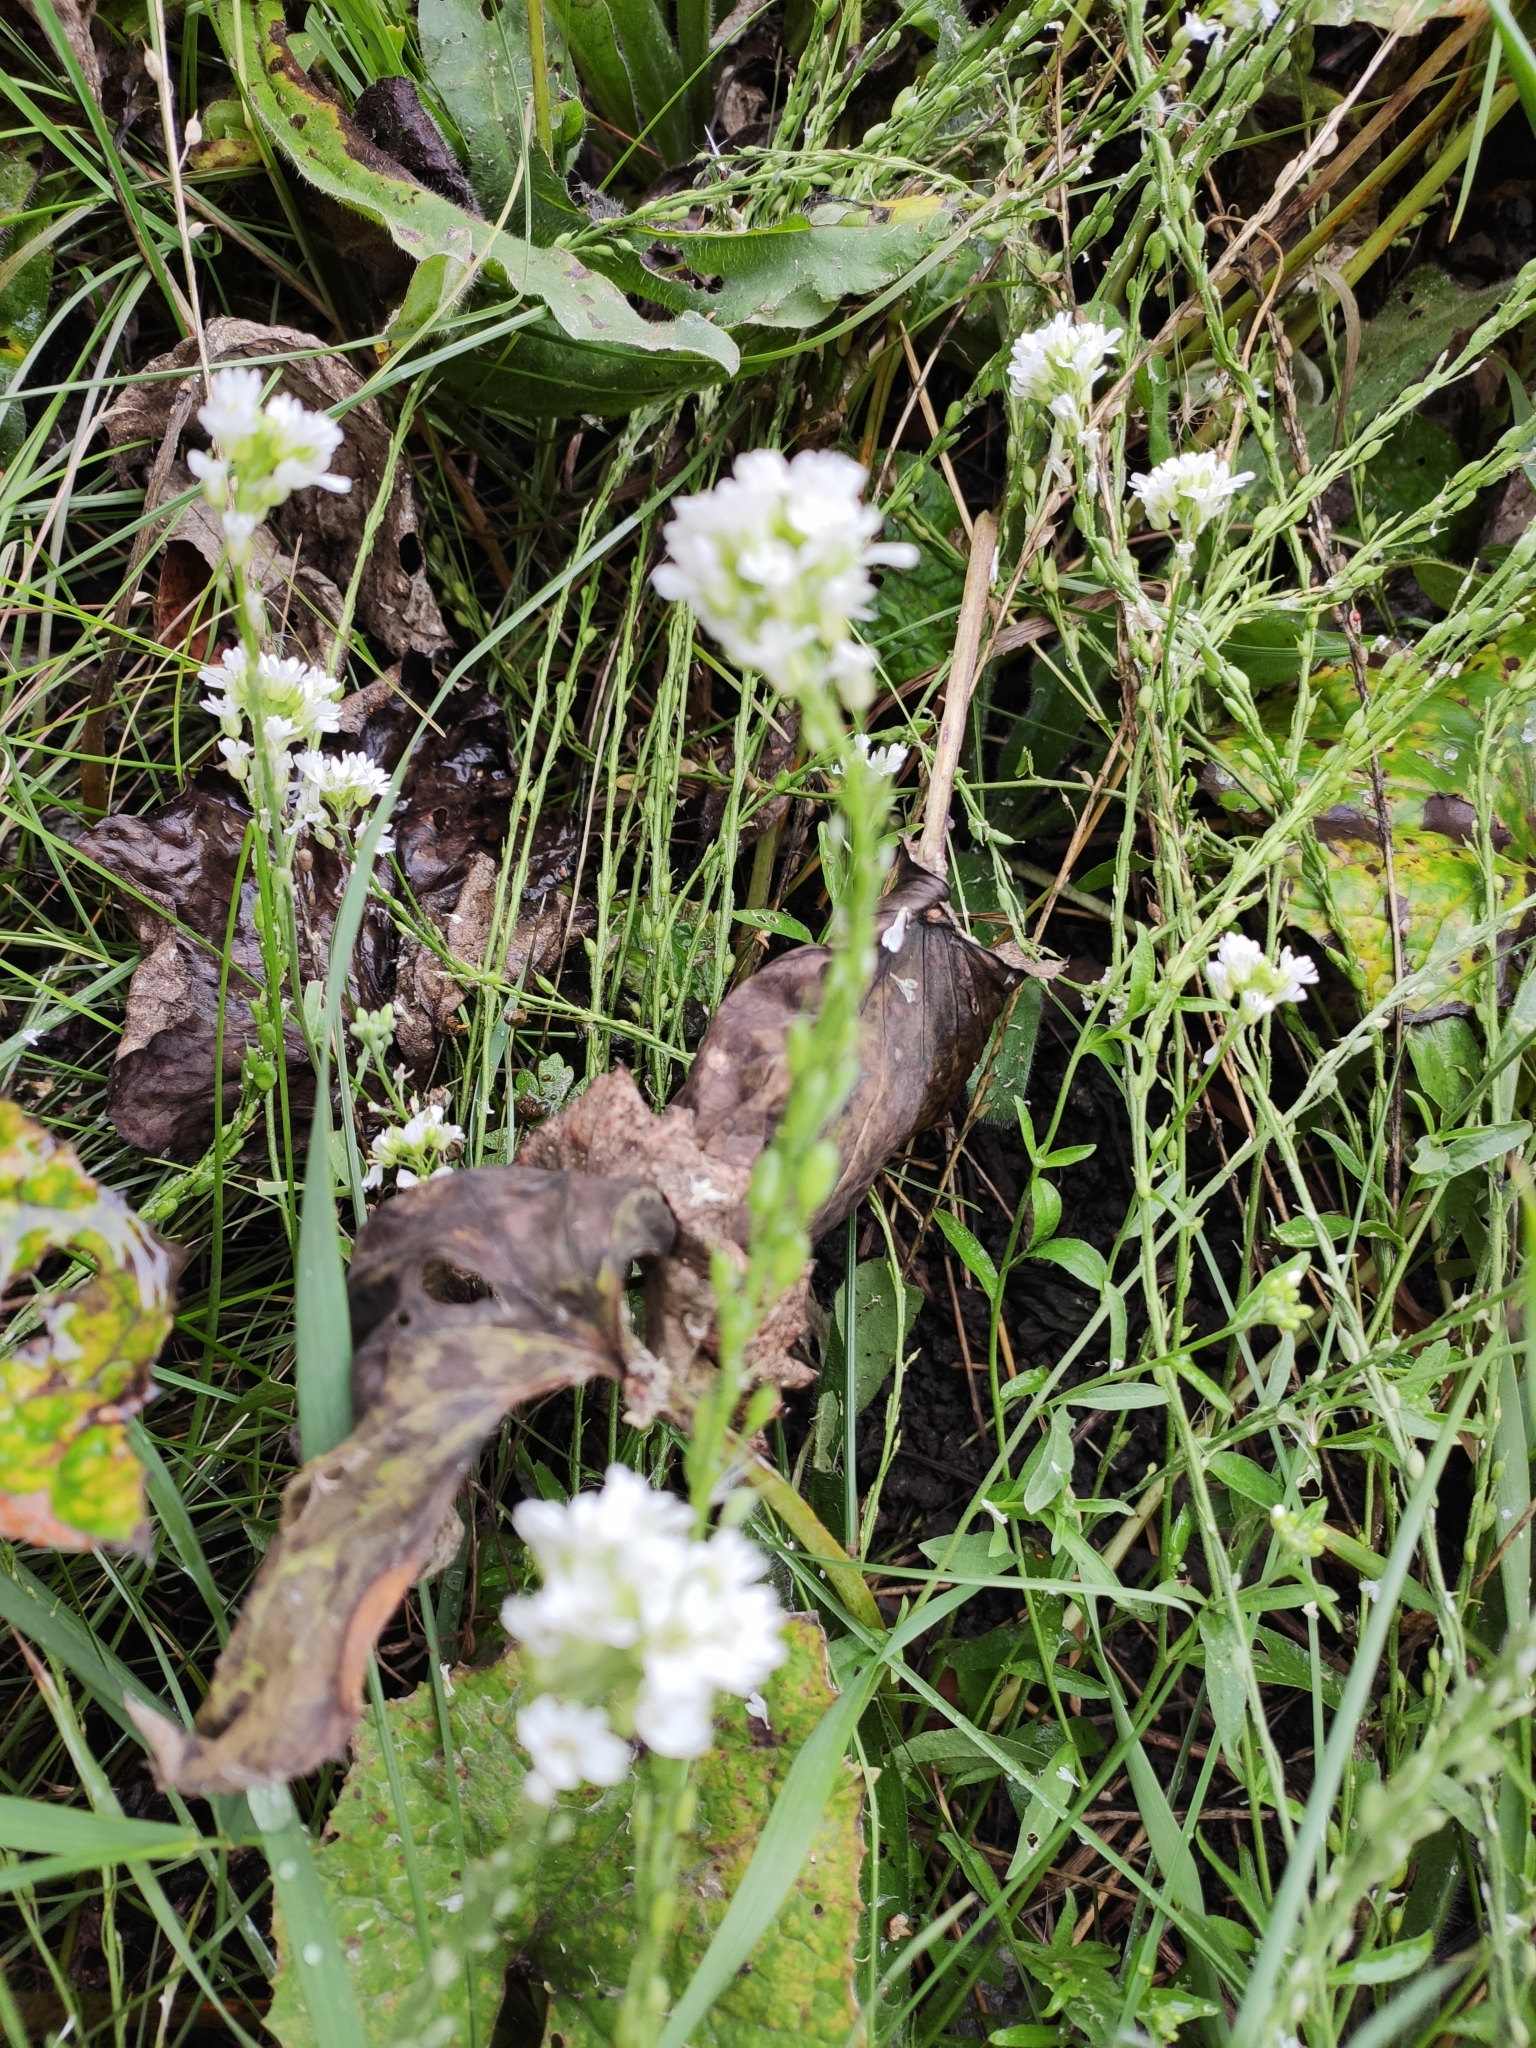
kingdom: Plantae
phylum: Tracheophyta
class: Magnoliopsida
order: Brassicales
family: Brassicaceae
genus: Berteroa
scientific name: Berteroa incana
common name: Hoary alison
